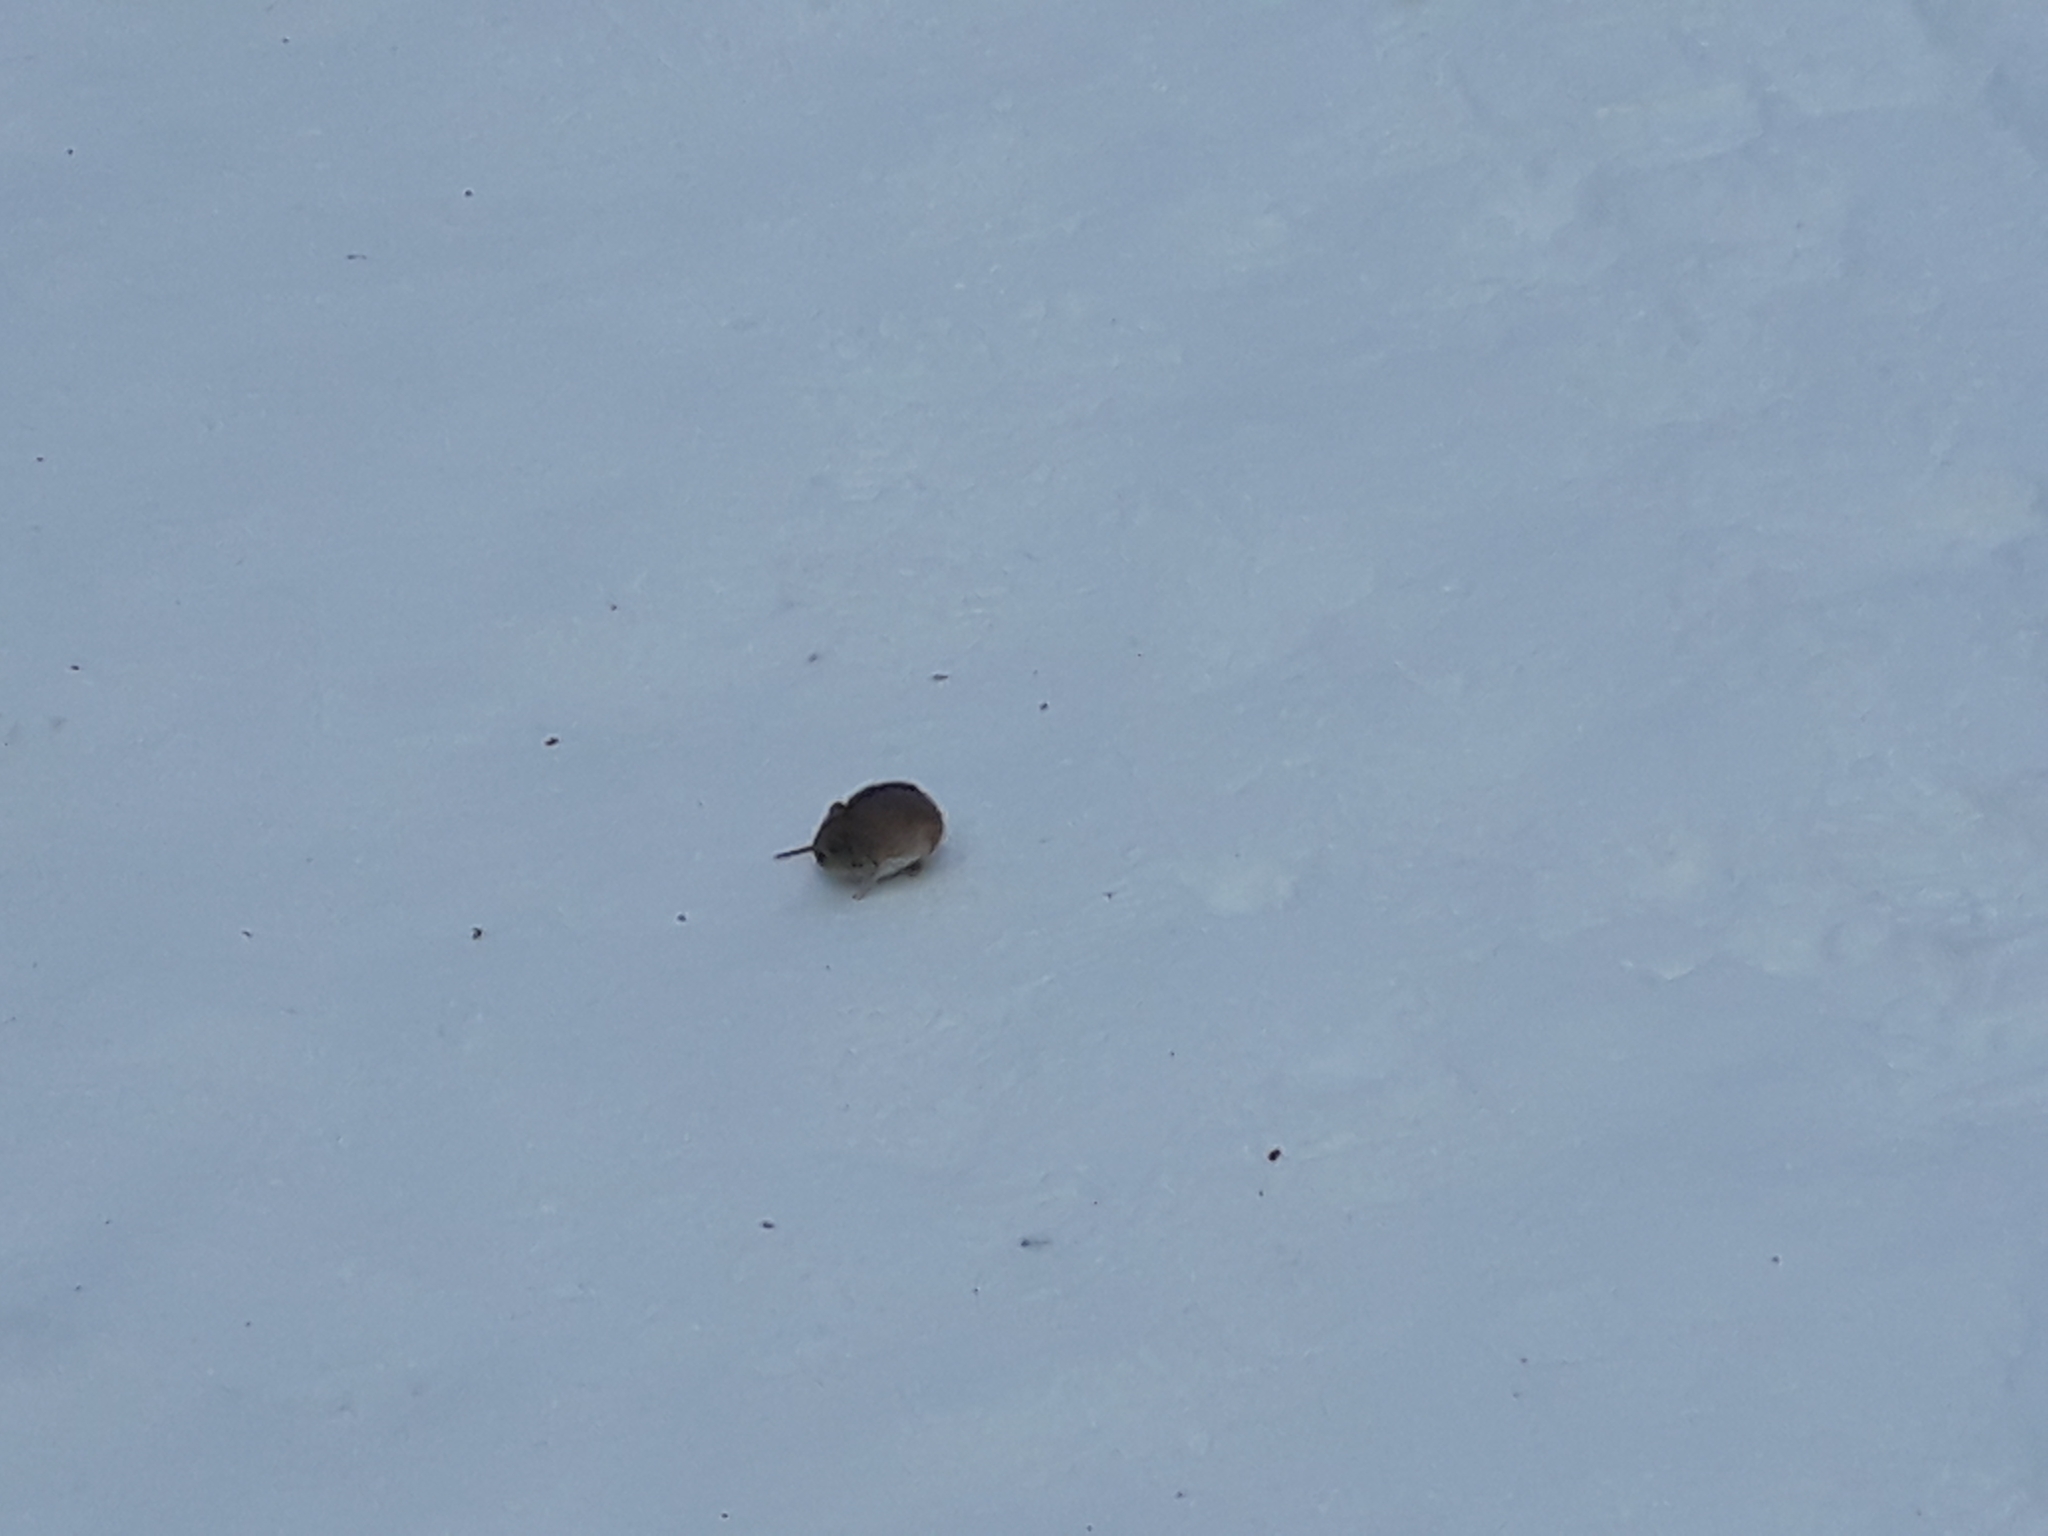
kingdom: Animalia
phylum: Chordata
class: Mammalia
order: Rodentia
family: Muridae
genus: Apodemus
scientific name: Apodemus agrarius
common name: Striped field mouse
